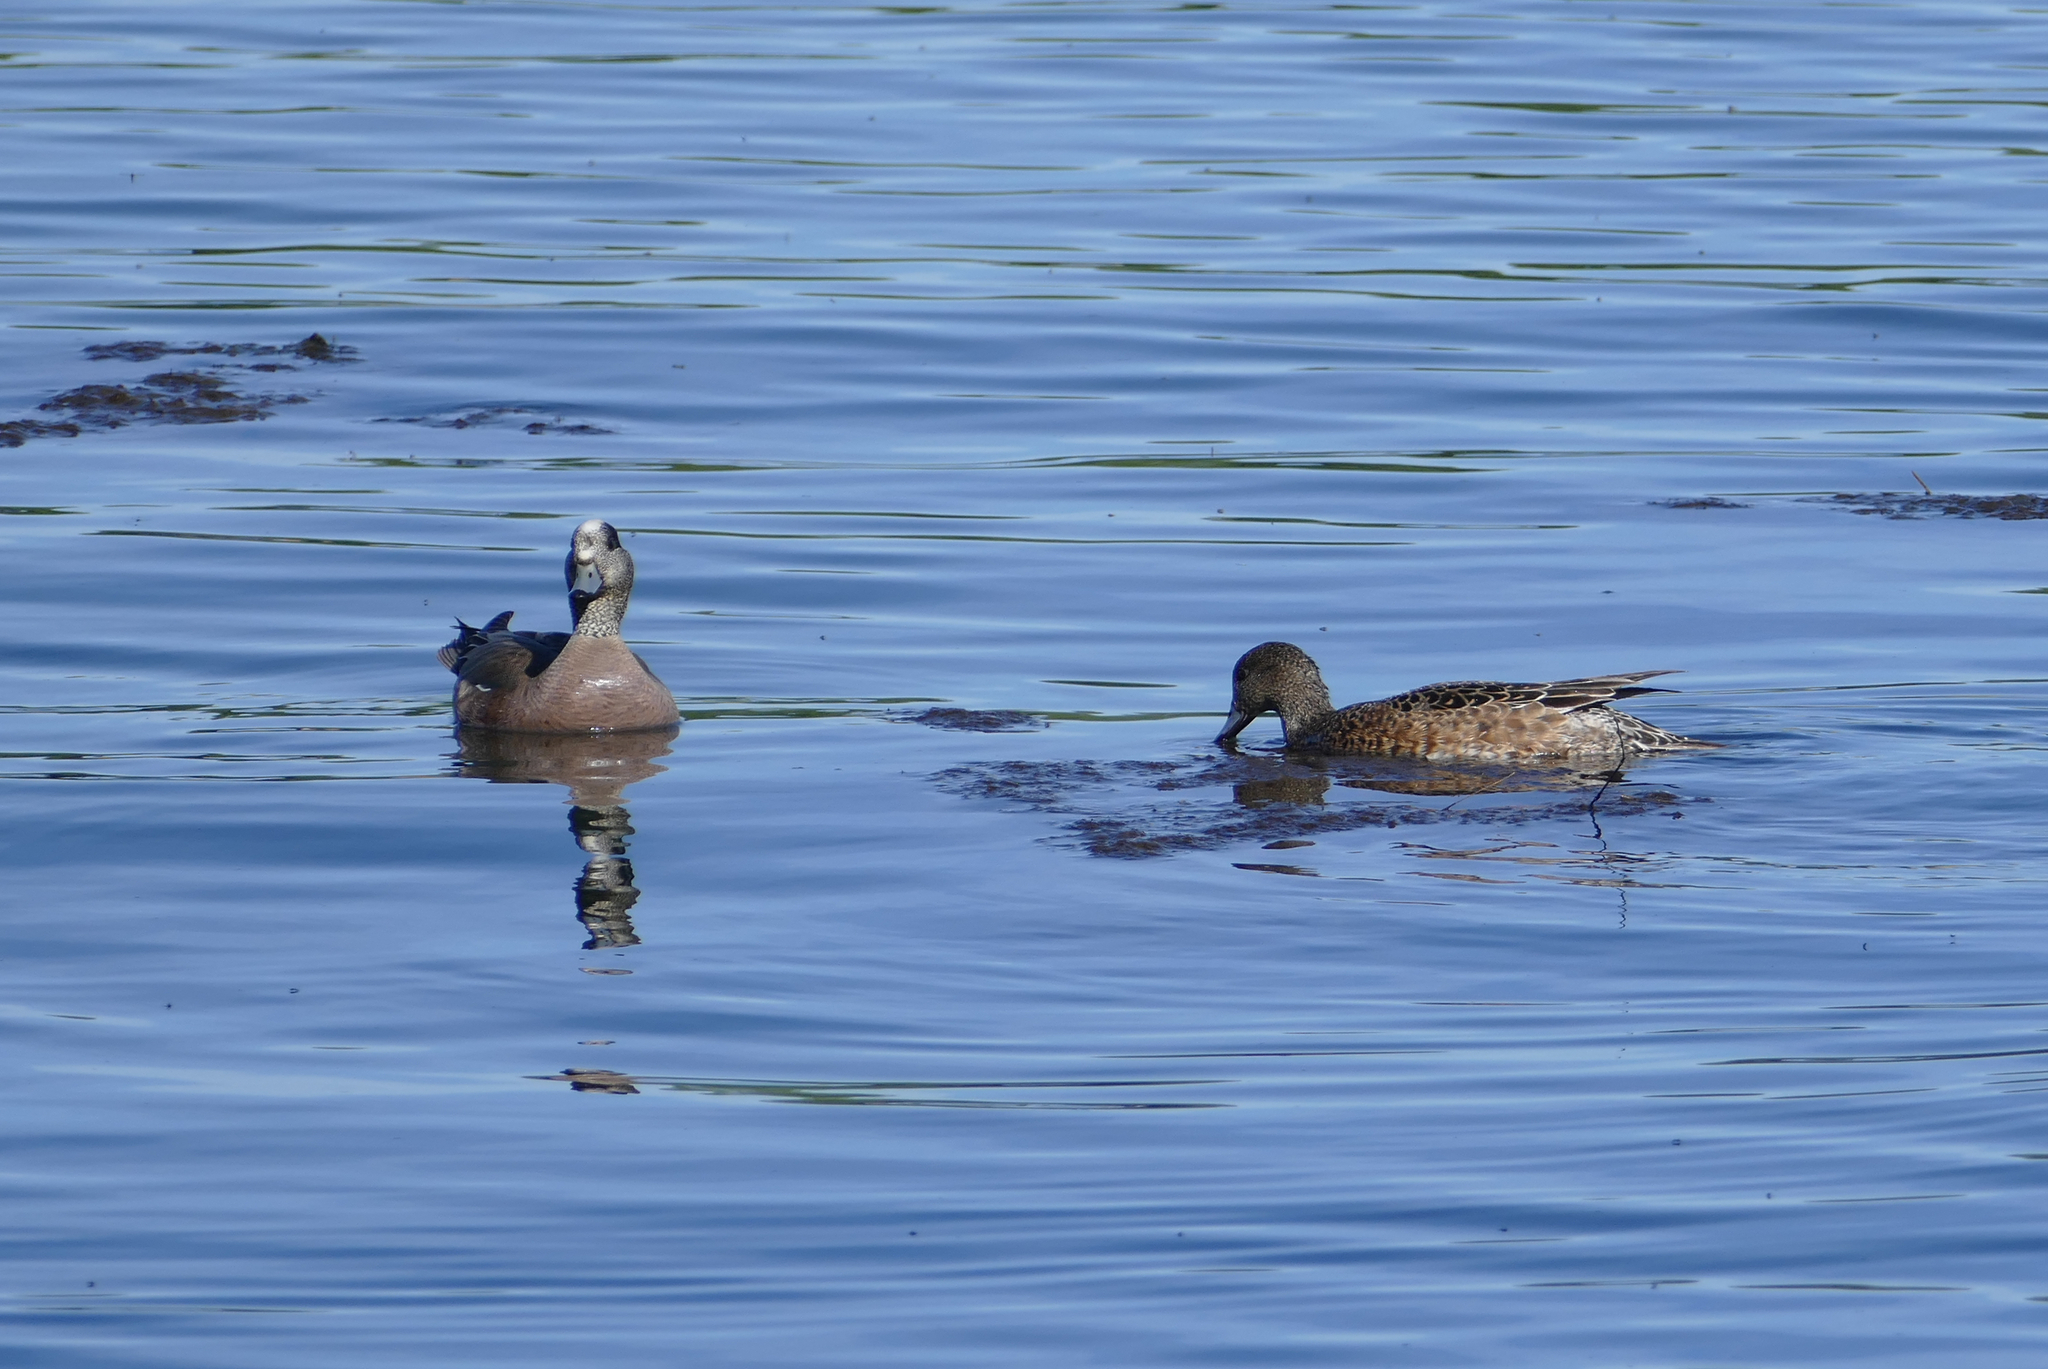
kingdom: Animalia
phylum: Chordata
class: Aves
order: Anseriformes
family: Anatidae
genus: Mareca
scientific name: Mareca americana
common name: American wigeon
